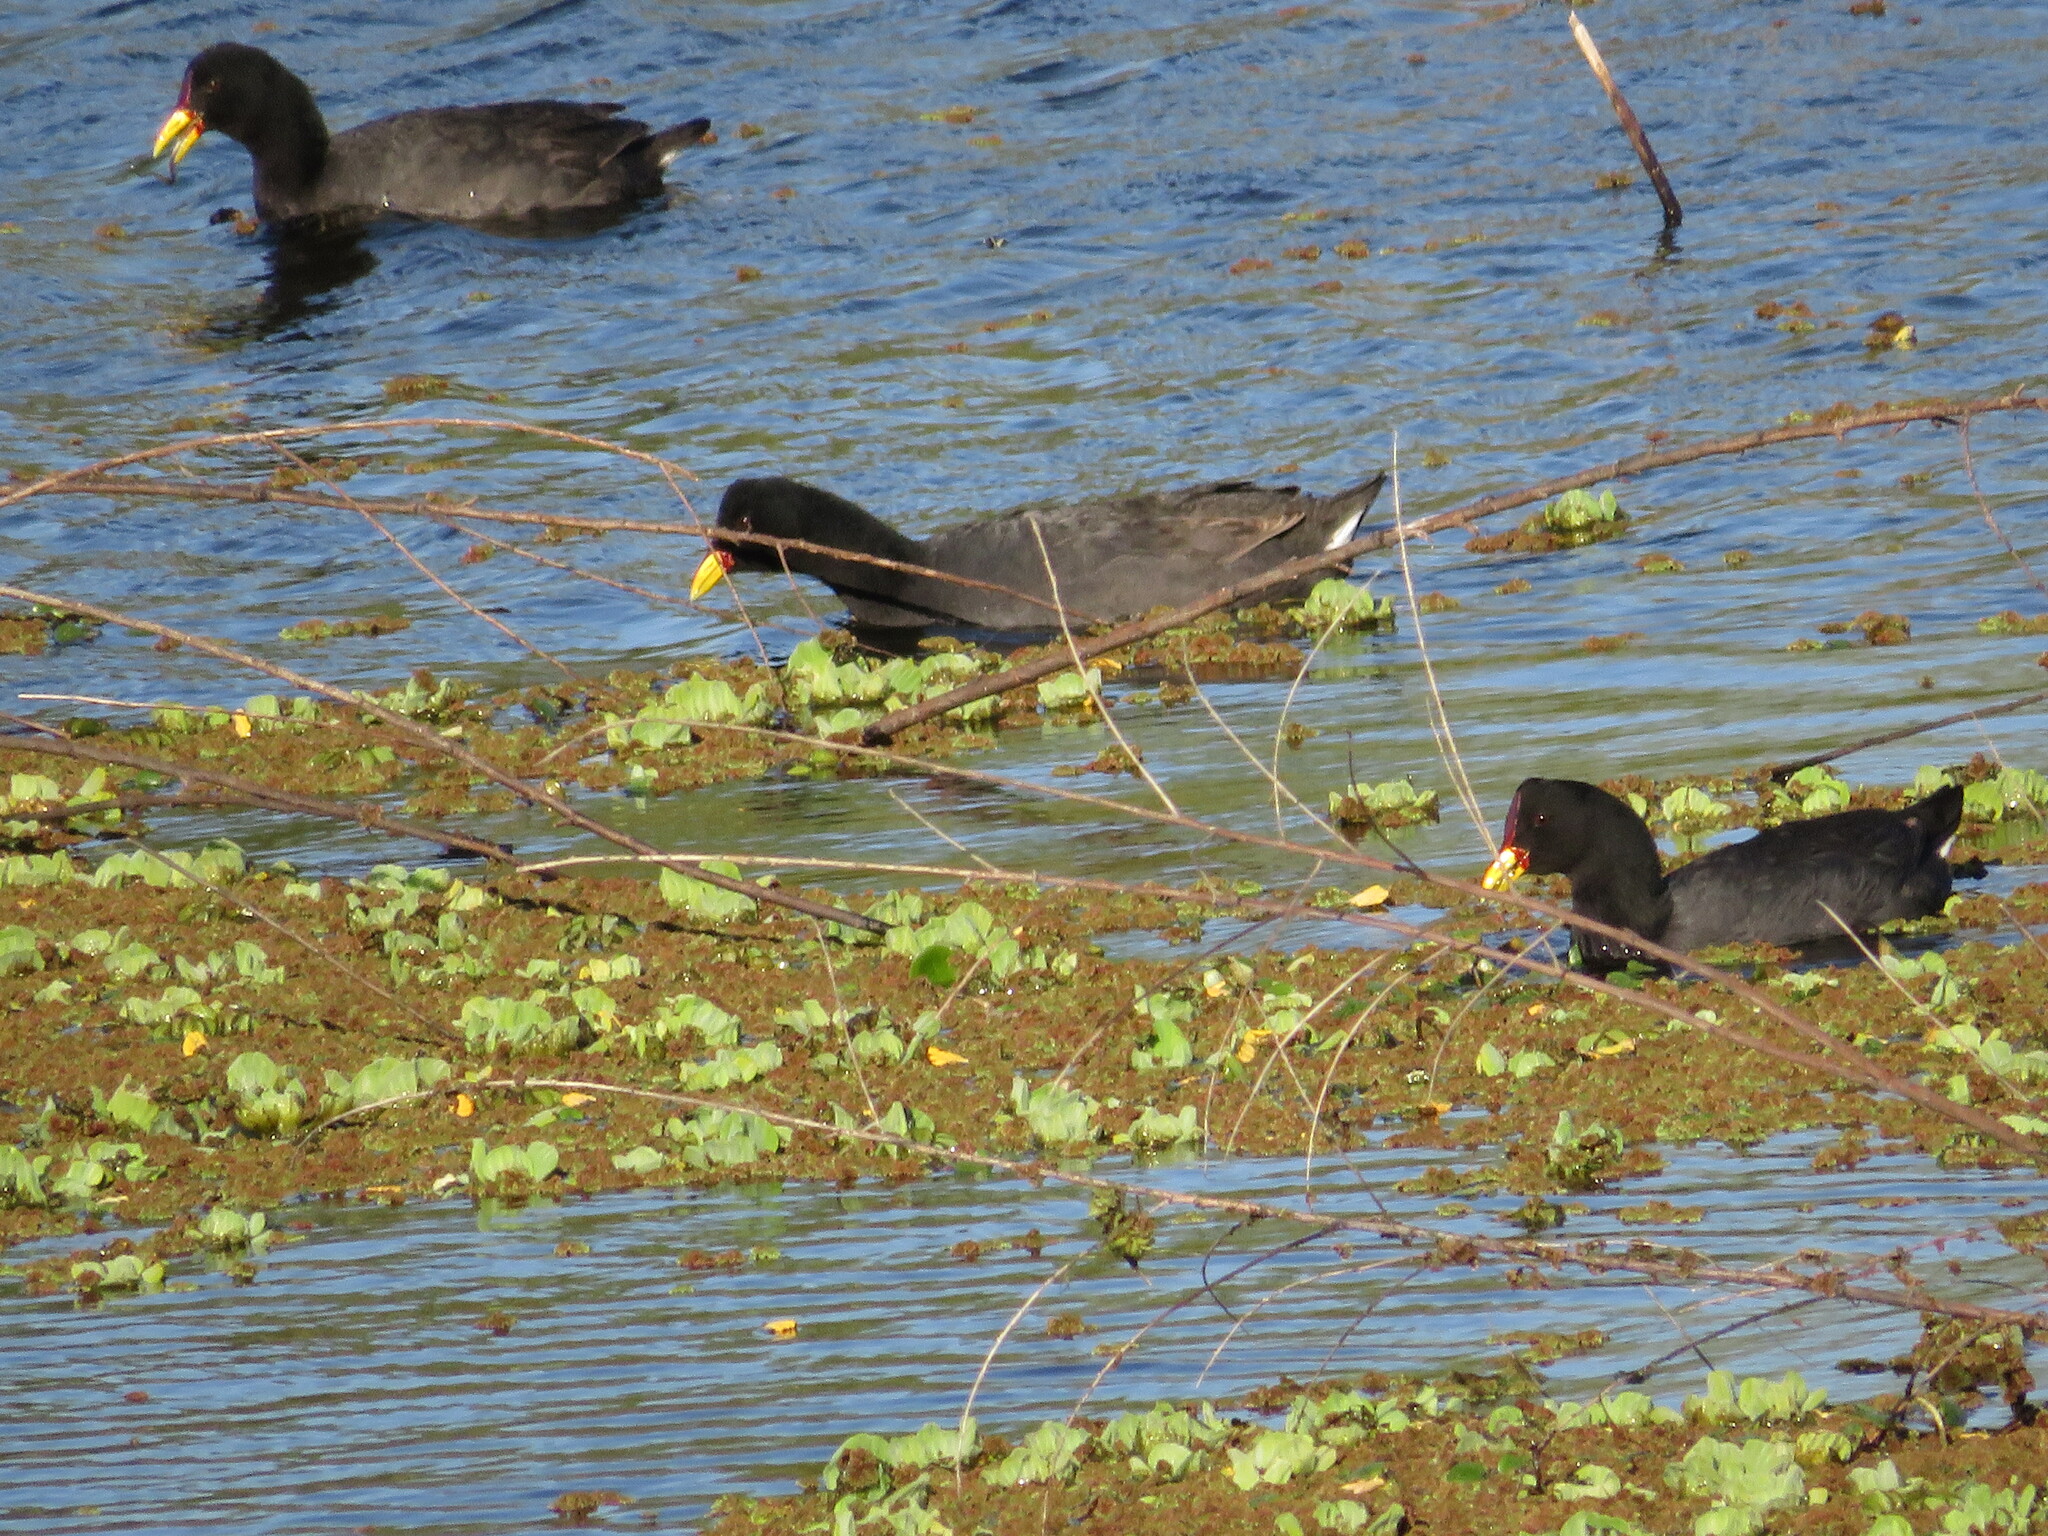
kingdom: Animalia
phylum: Chordata
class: Aves
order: Gruiformes
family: Rallidae
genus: Fulica
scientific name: Fulica rufifrons
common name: Red-fronted coot
